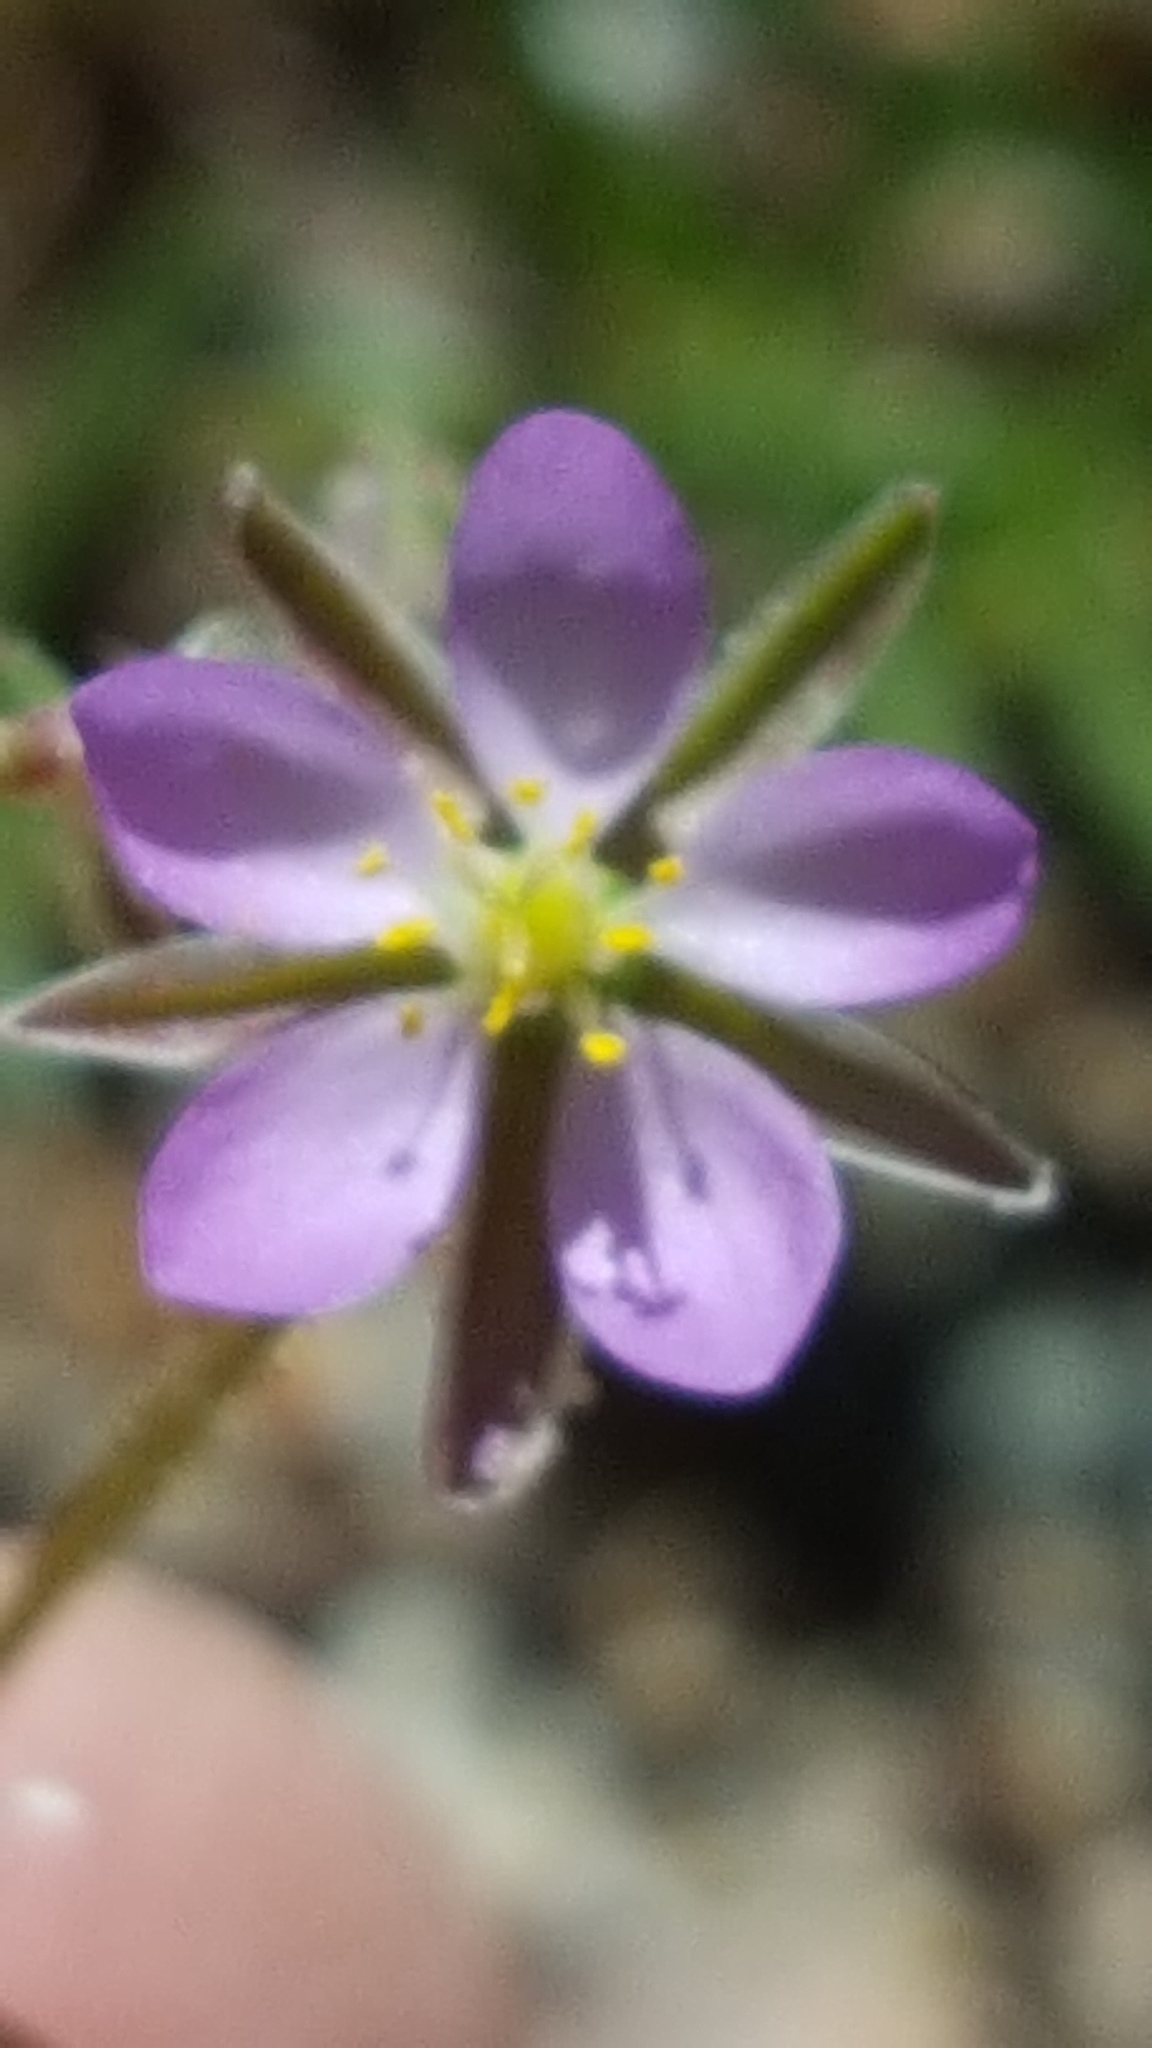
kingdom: Plantae
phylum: Tracheophyta
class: Magnoliopsida
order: Caryophyllales
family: Caryophyllaceae
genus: Spergularia
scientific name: Spergularia rubra
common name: Red sand-spurrey
